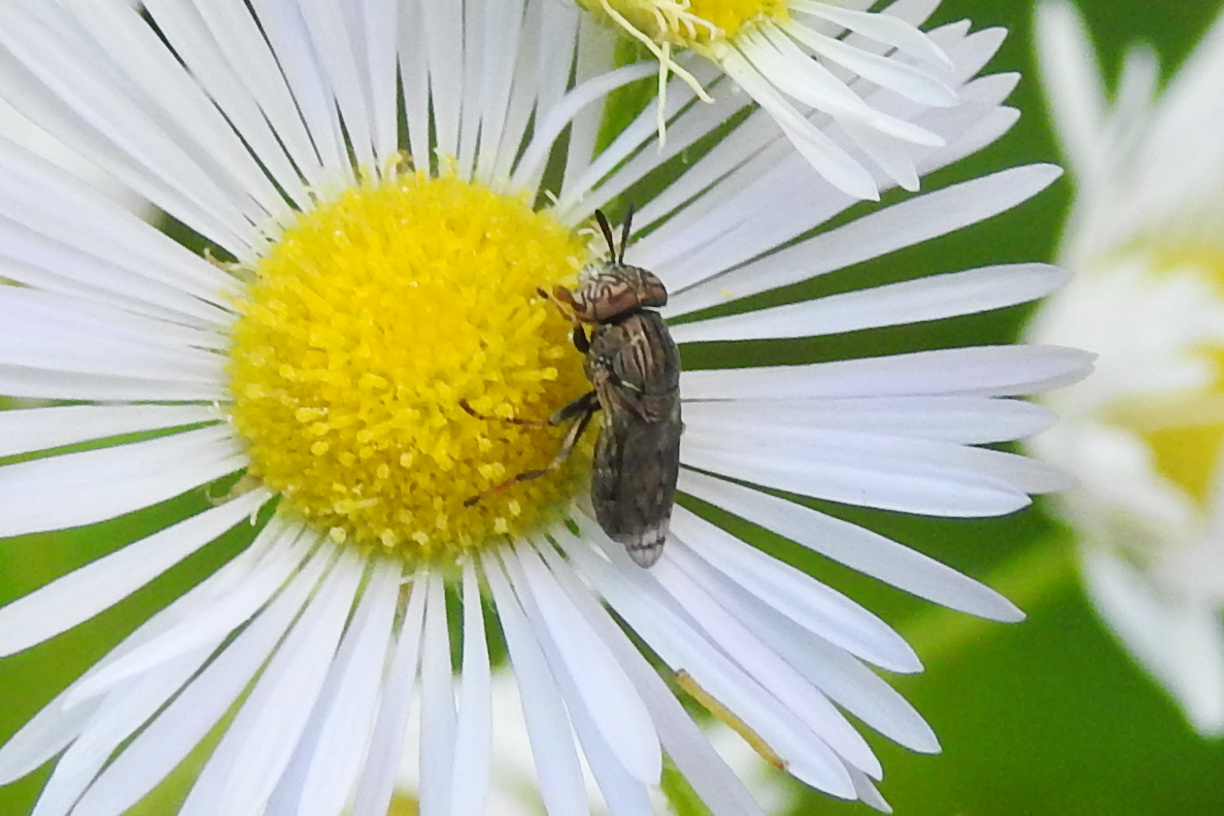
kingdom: Animalia
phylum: Arthropoda
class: Insecta
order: Diptera
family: Syrphidae
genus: Orthonevra
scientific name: Orthonevra nitida
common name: Wavy mucksucker
